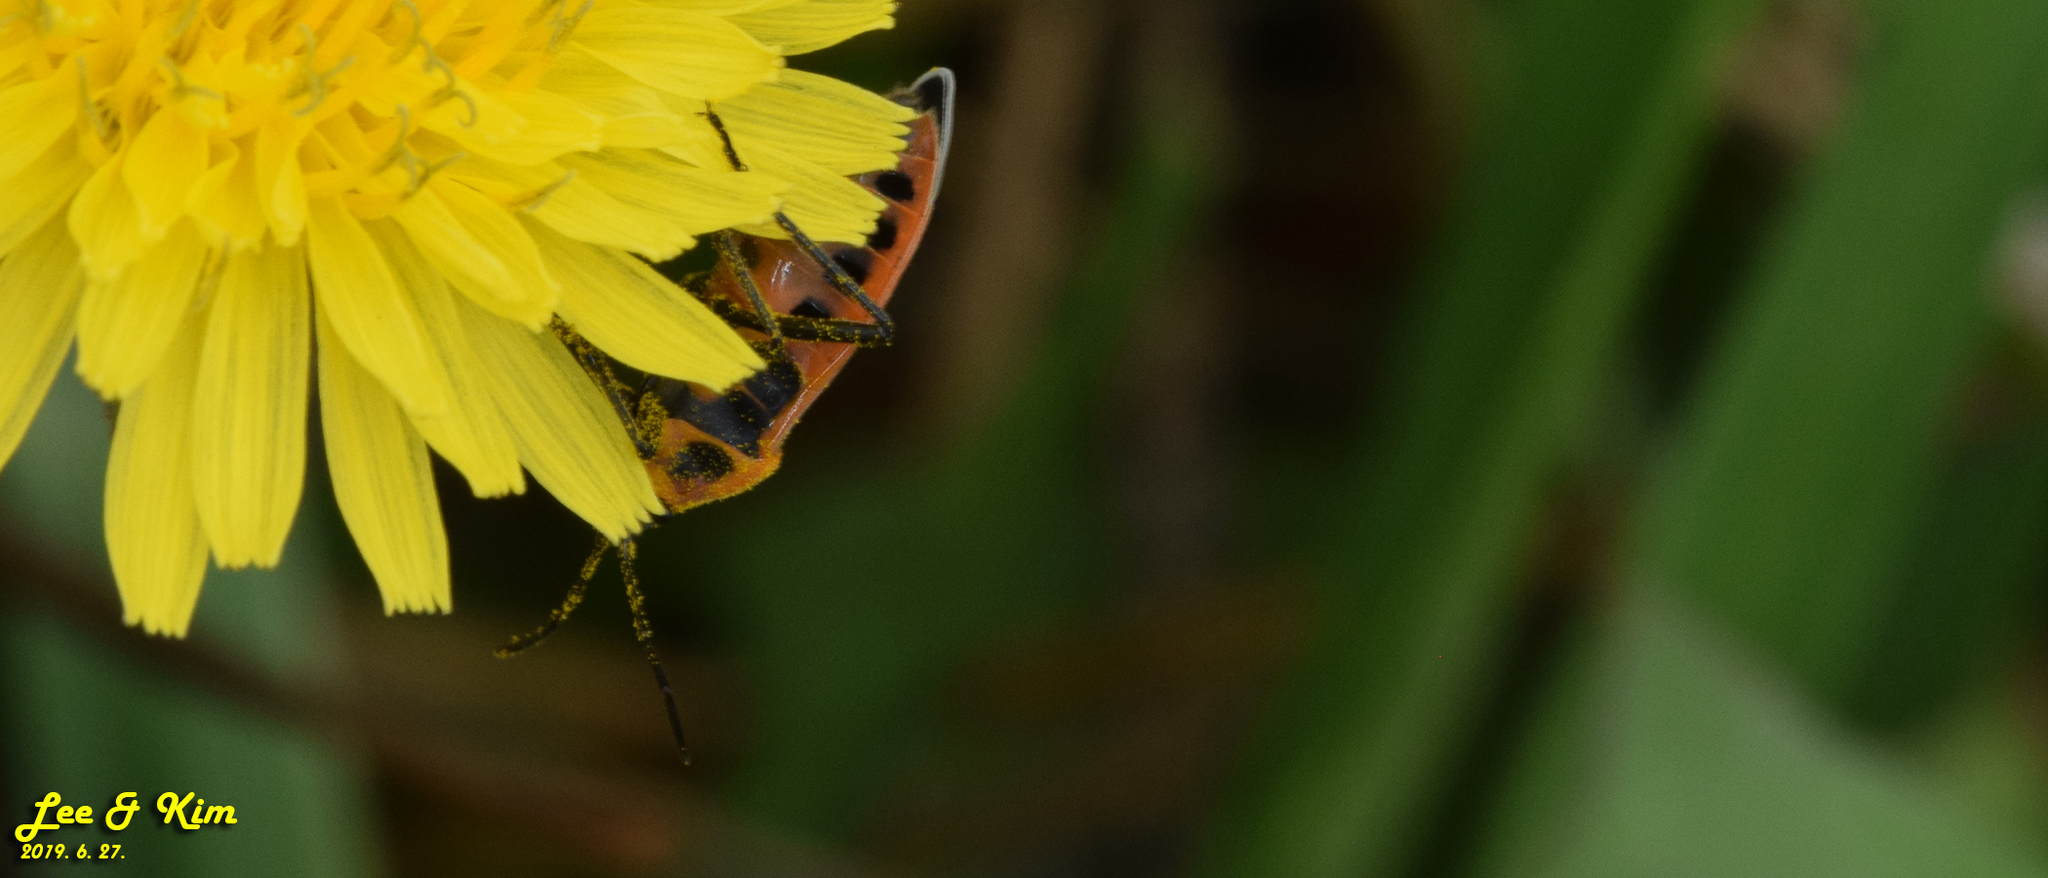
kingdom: Animalia
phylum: Arthropoda
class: Insecta
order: Hemiptera
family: Lygaeidae
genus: Tropidothorax
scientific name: Tropidothorax cruciger
